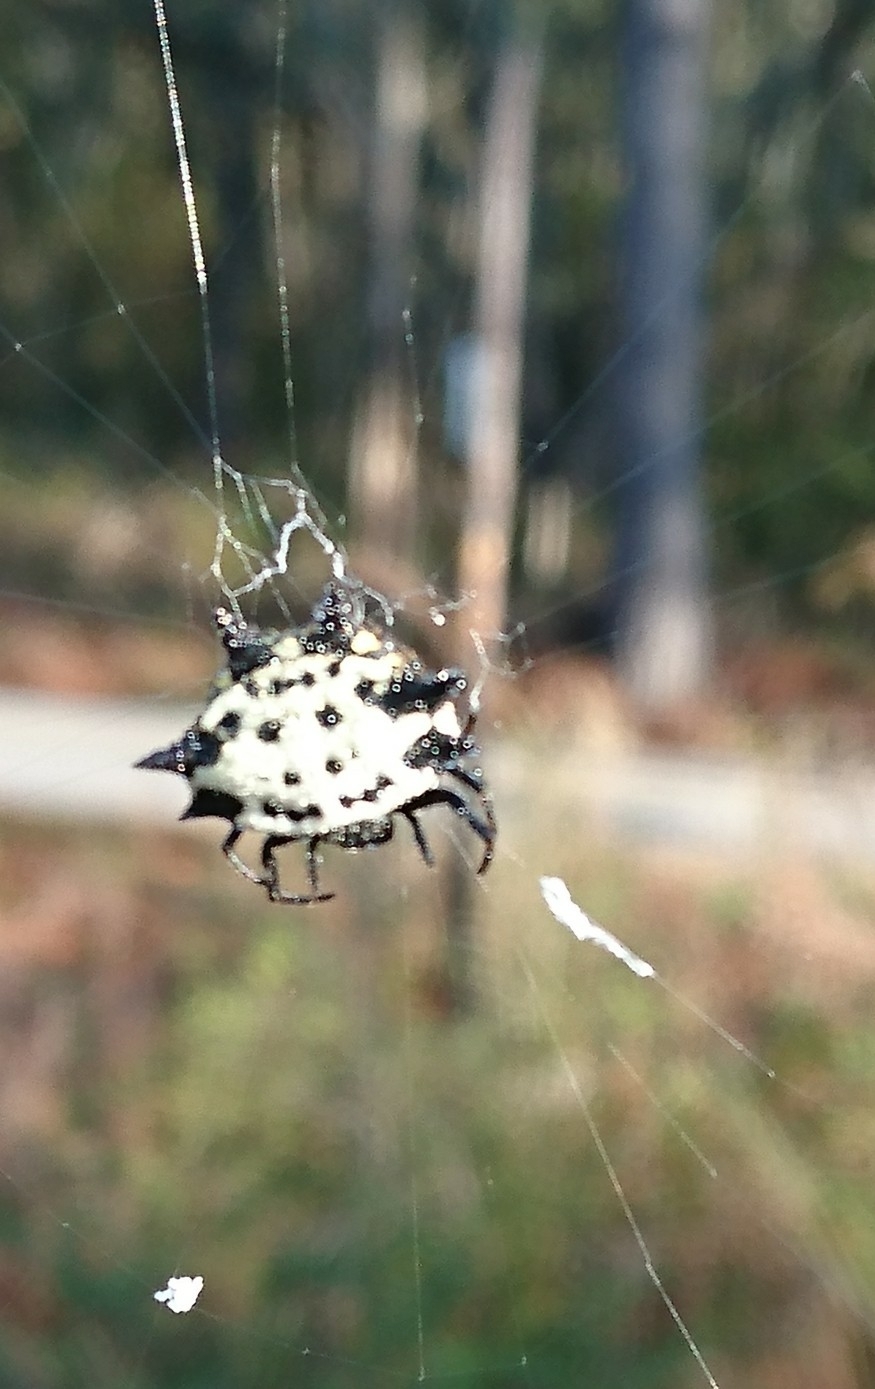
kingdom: Animalia
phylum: Arthropoda
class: Arachnida
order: Araneae
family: Araneidae
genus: Gasteracantha
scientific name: Gasteracantha cancriformis
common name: Orb weavers
